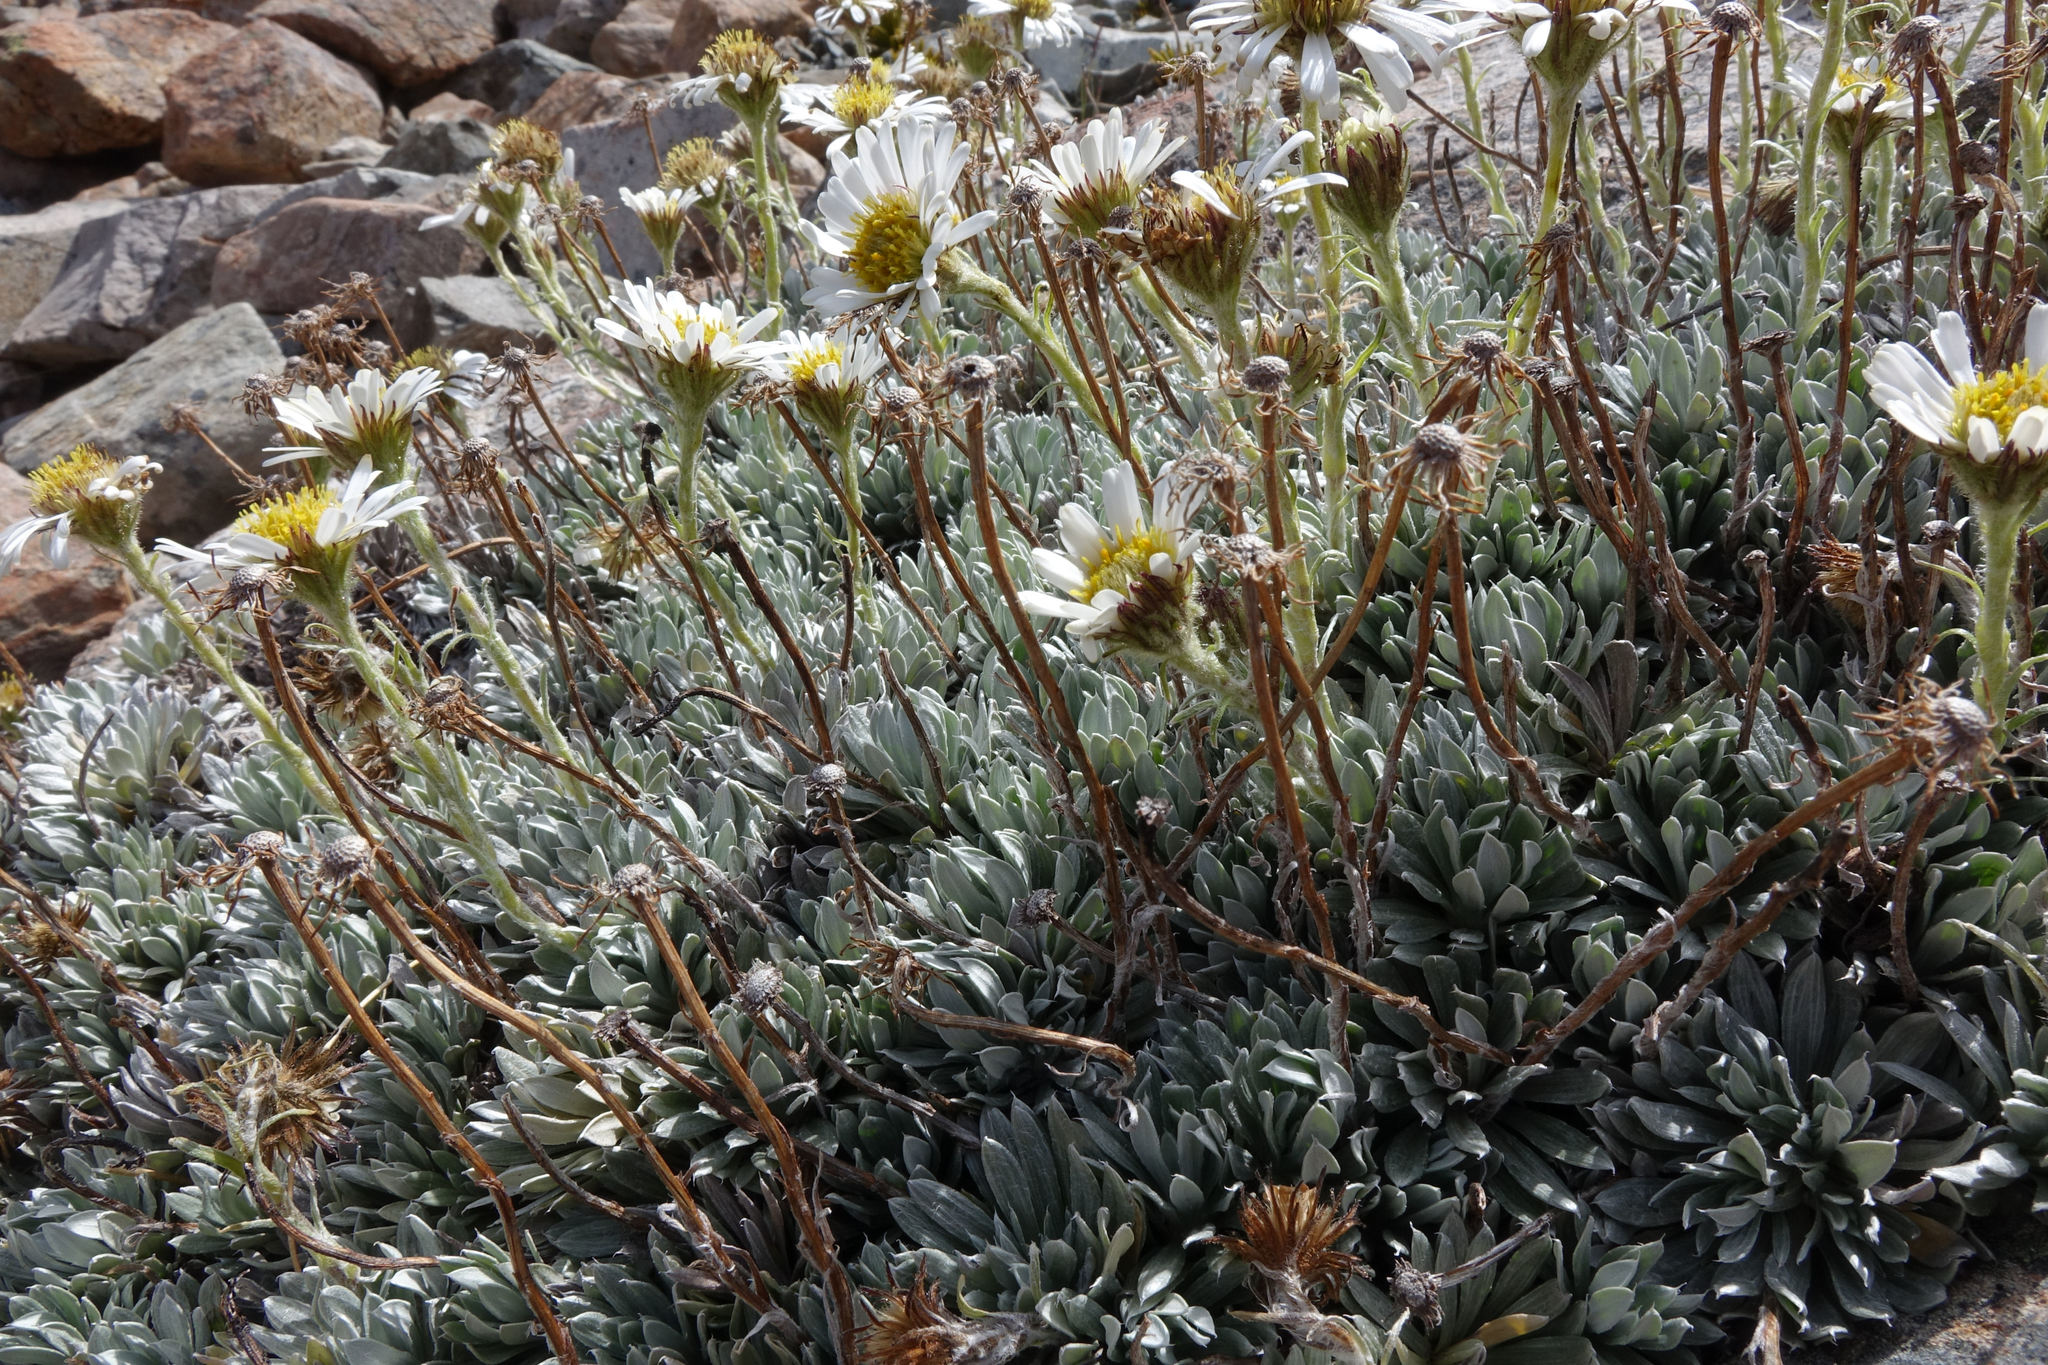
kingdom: Plantae
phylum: Tracheophyta
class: Magnoliopsida
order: Asterales
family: Asteraceae
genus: Celmisia
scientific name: Celmisia hectorii
